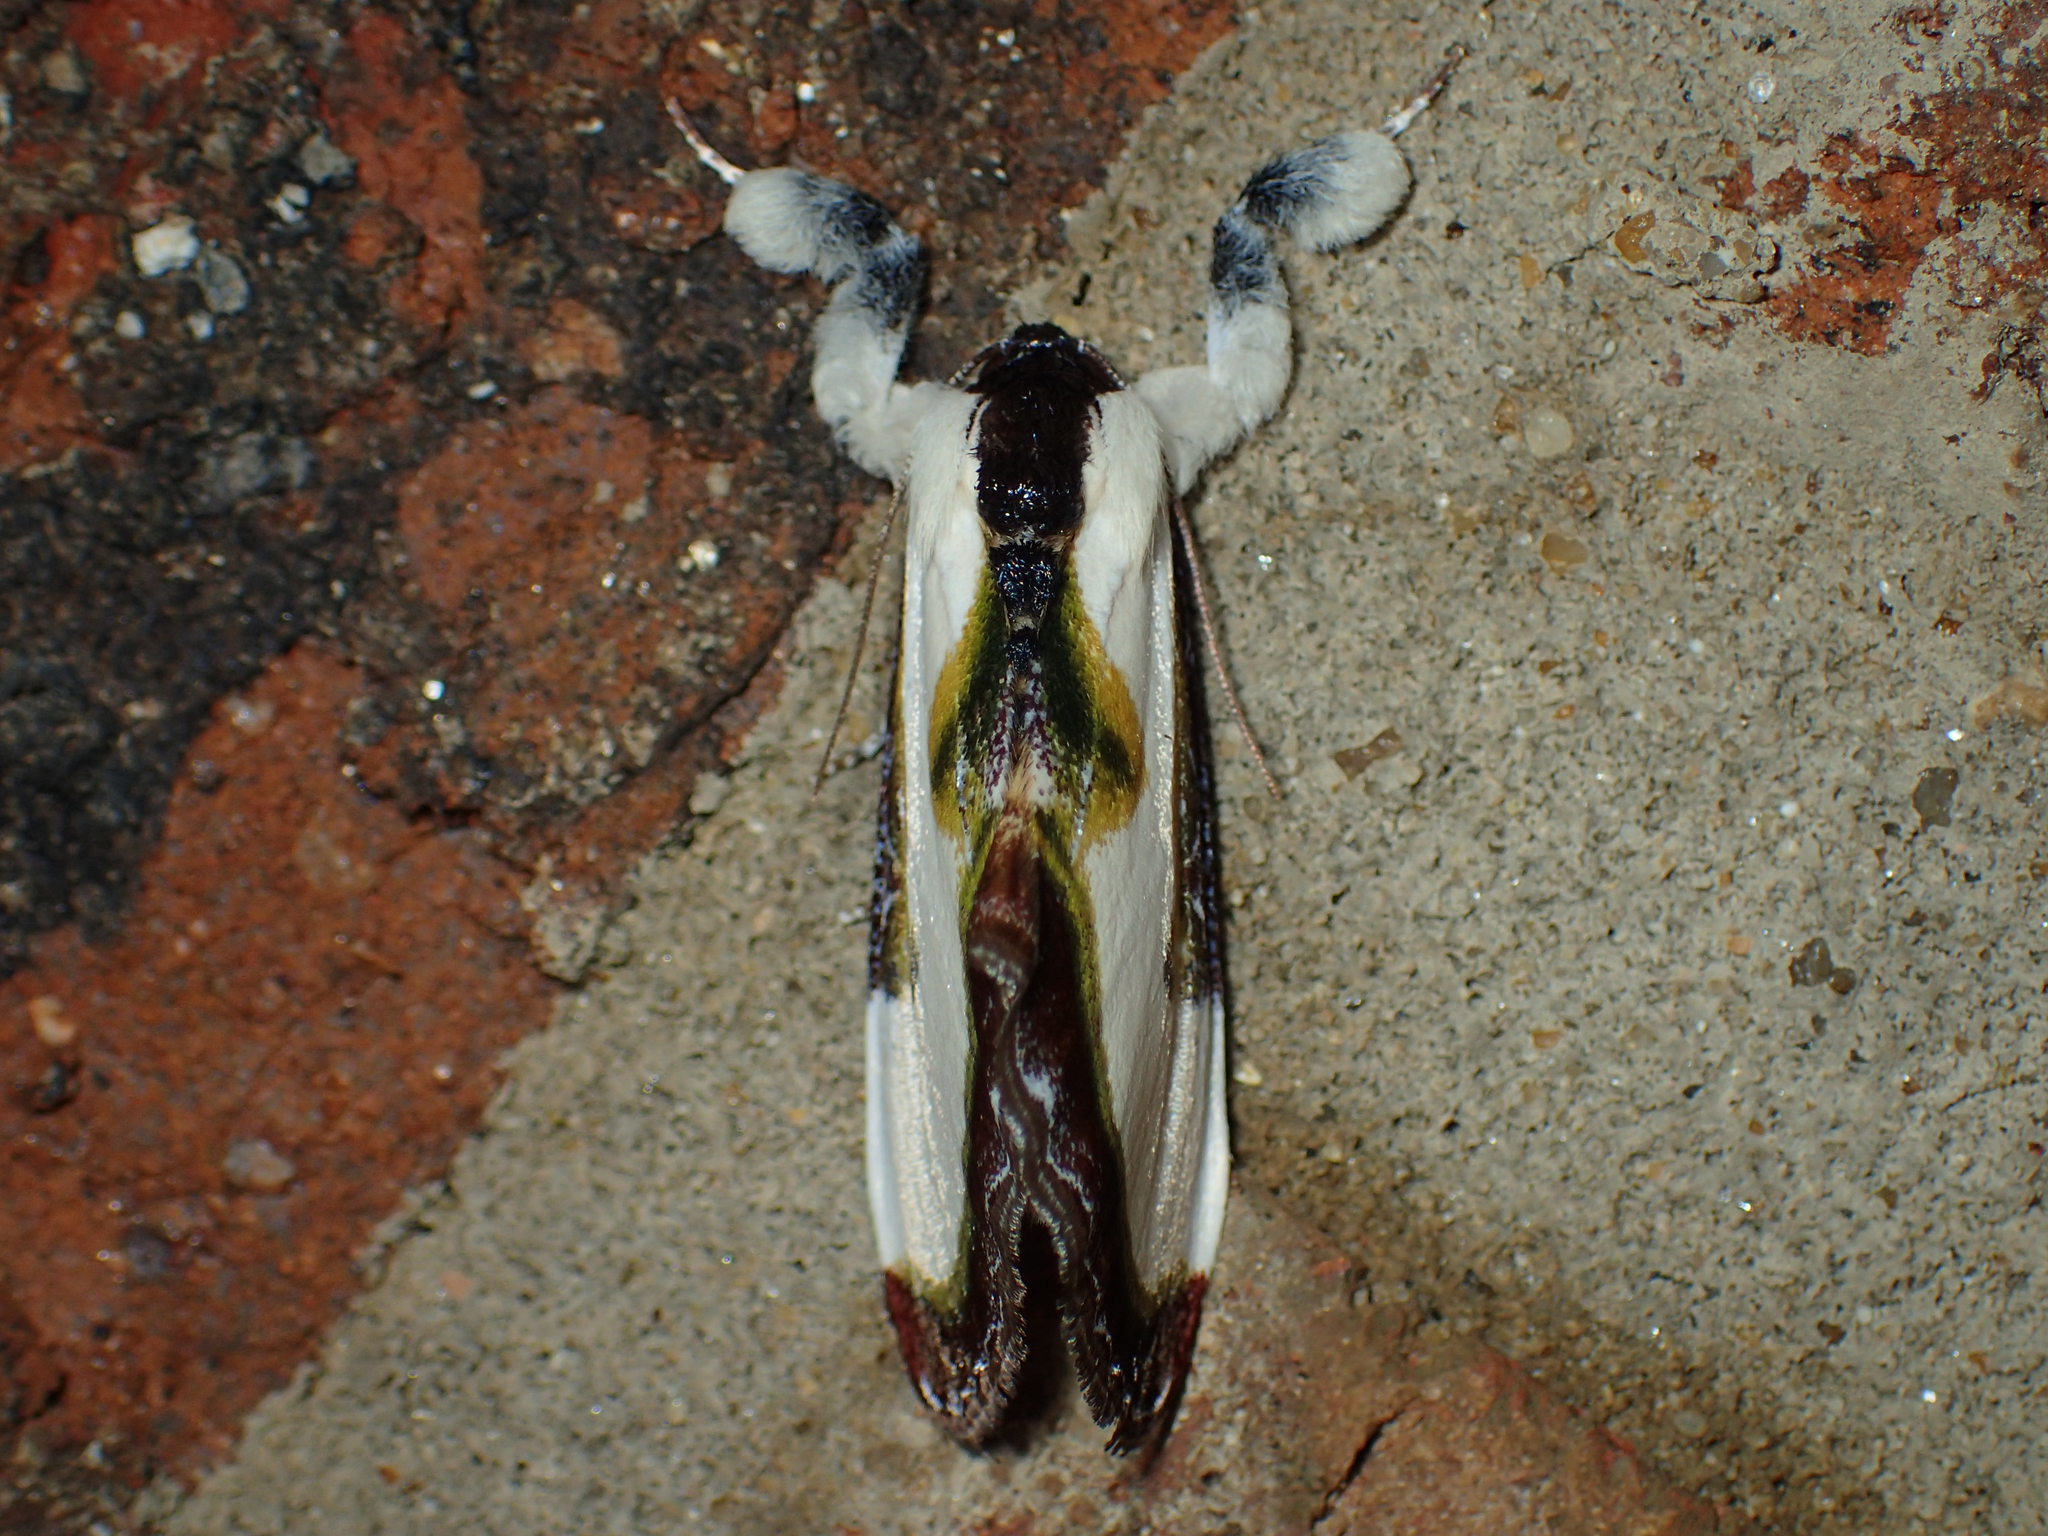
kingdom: Animalia
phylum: Arthropoda
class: Insecta
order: Lepidoptera
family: Noctuidae
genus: Eudryas
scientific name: Eudryas grata
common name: Beautiful wood-nymph
